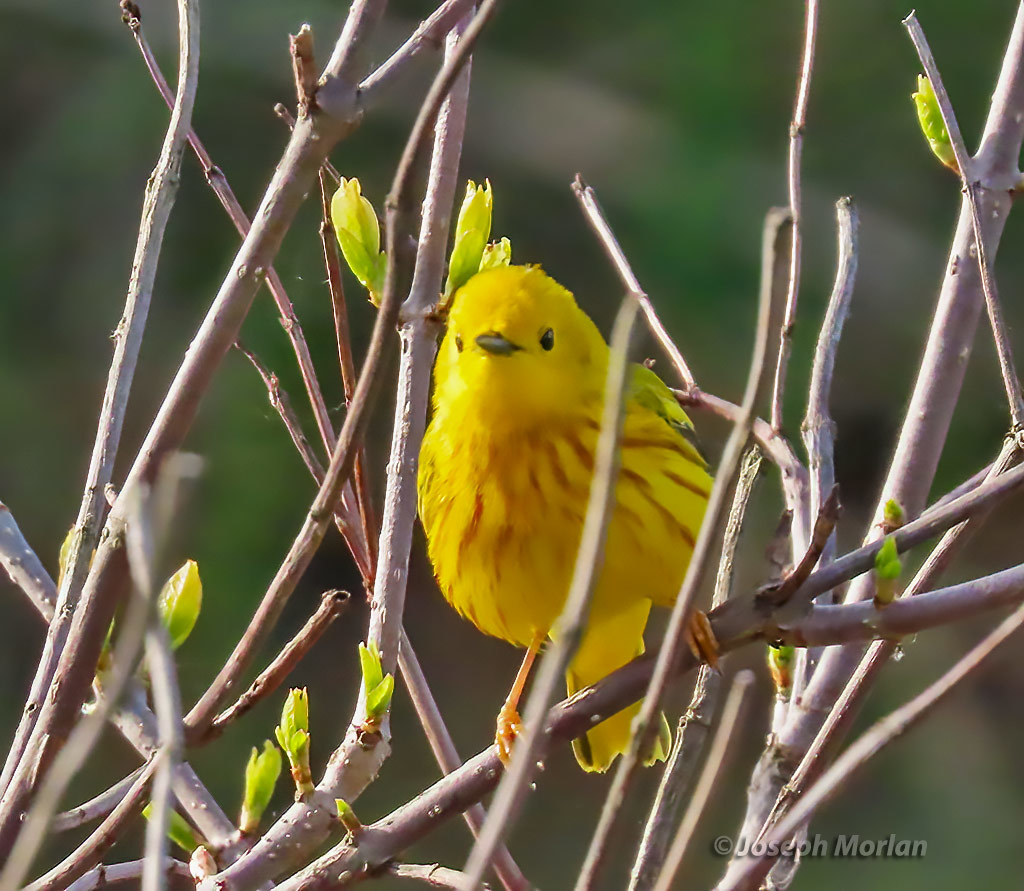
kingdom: Animalia
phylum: Chordata
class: Aves
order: Passeriformes
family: Parulidae
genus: Setophaga
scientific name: Setophaga petechia
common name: Yellow warbler
